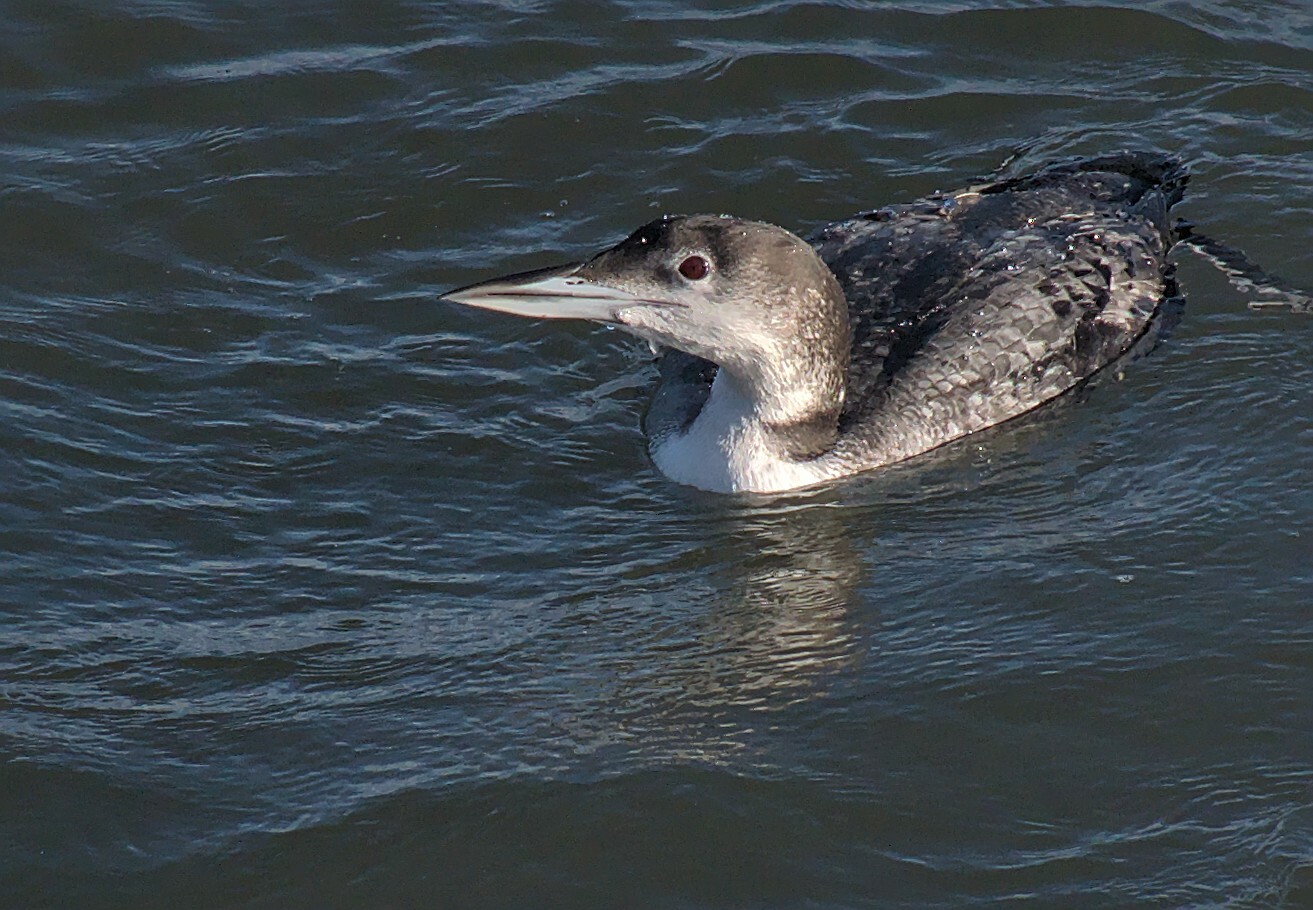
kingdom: Animalia
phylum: Chordata
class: Aves
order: Gaviiformes
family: Gaviidae
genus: Gavia
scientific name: Gavia immer
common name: Common loon
